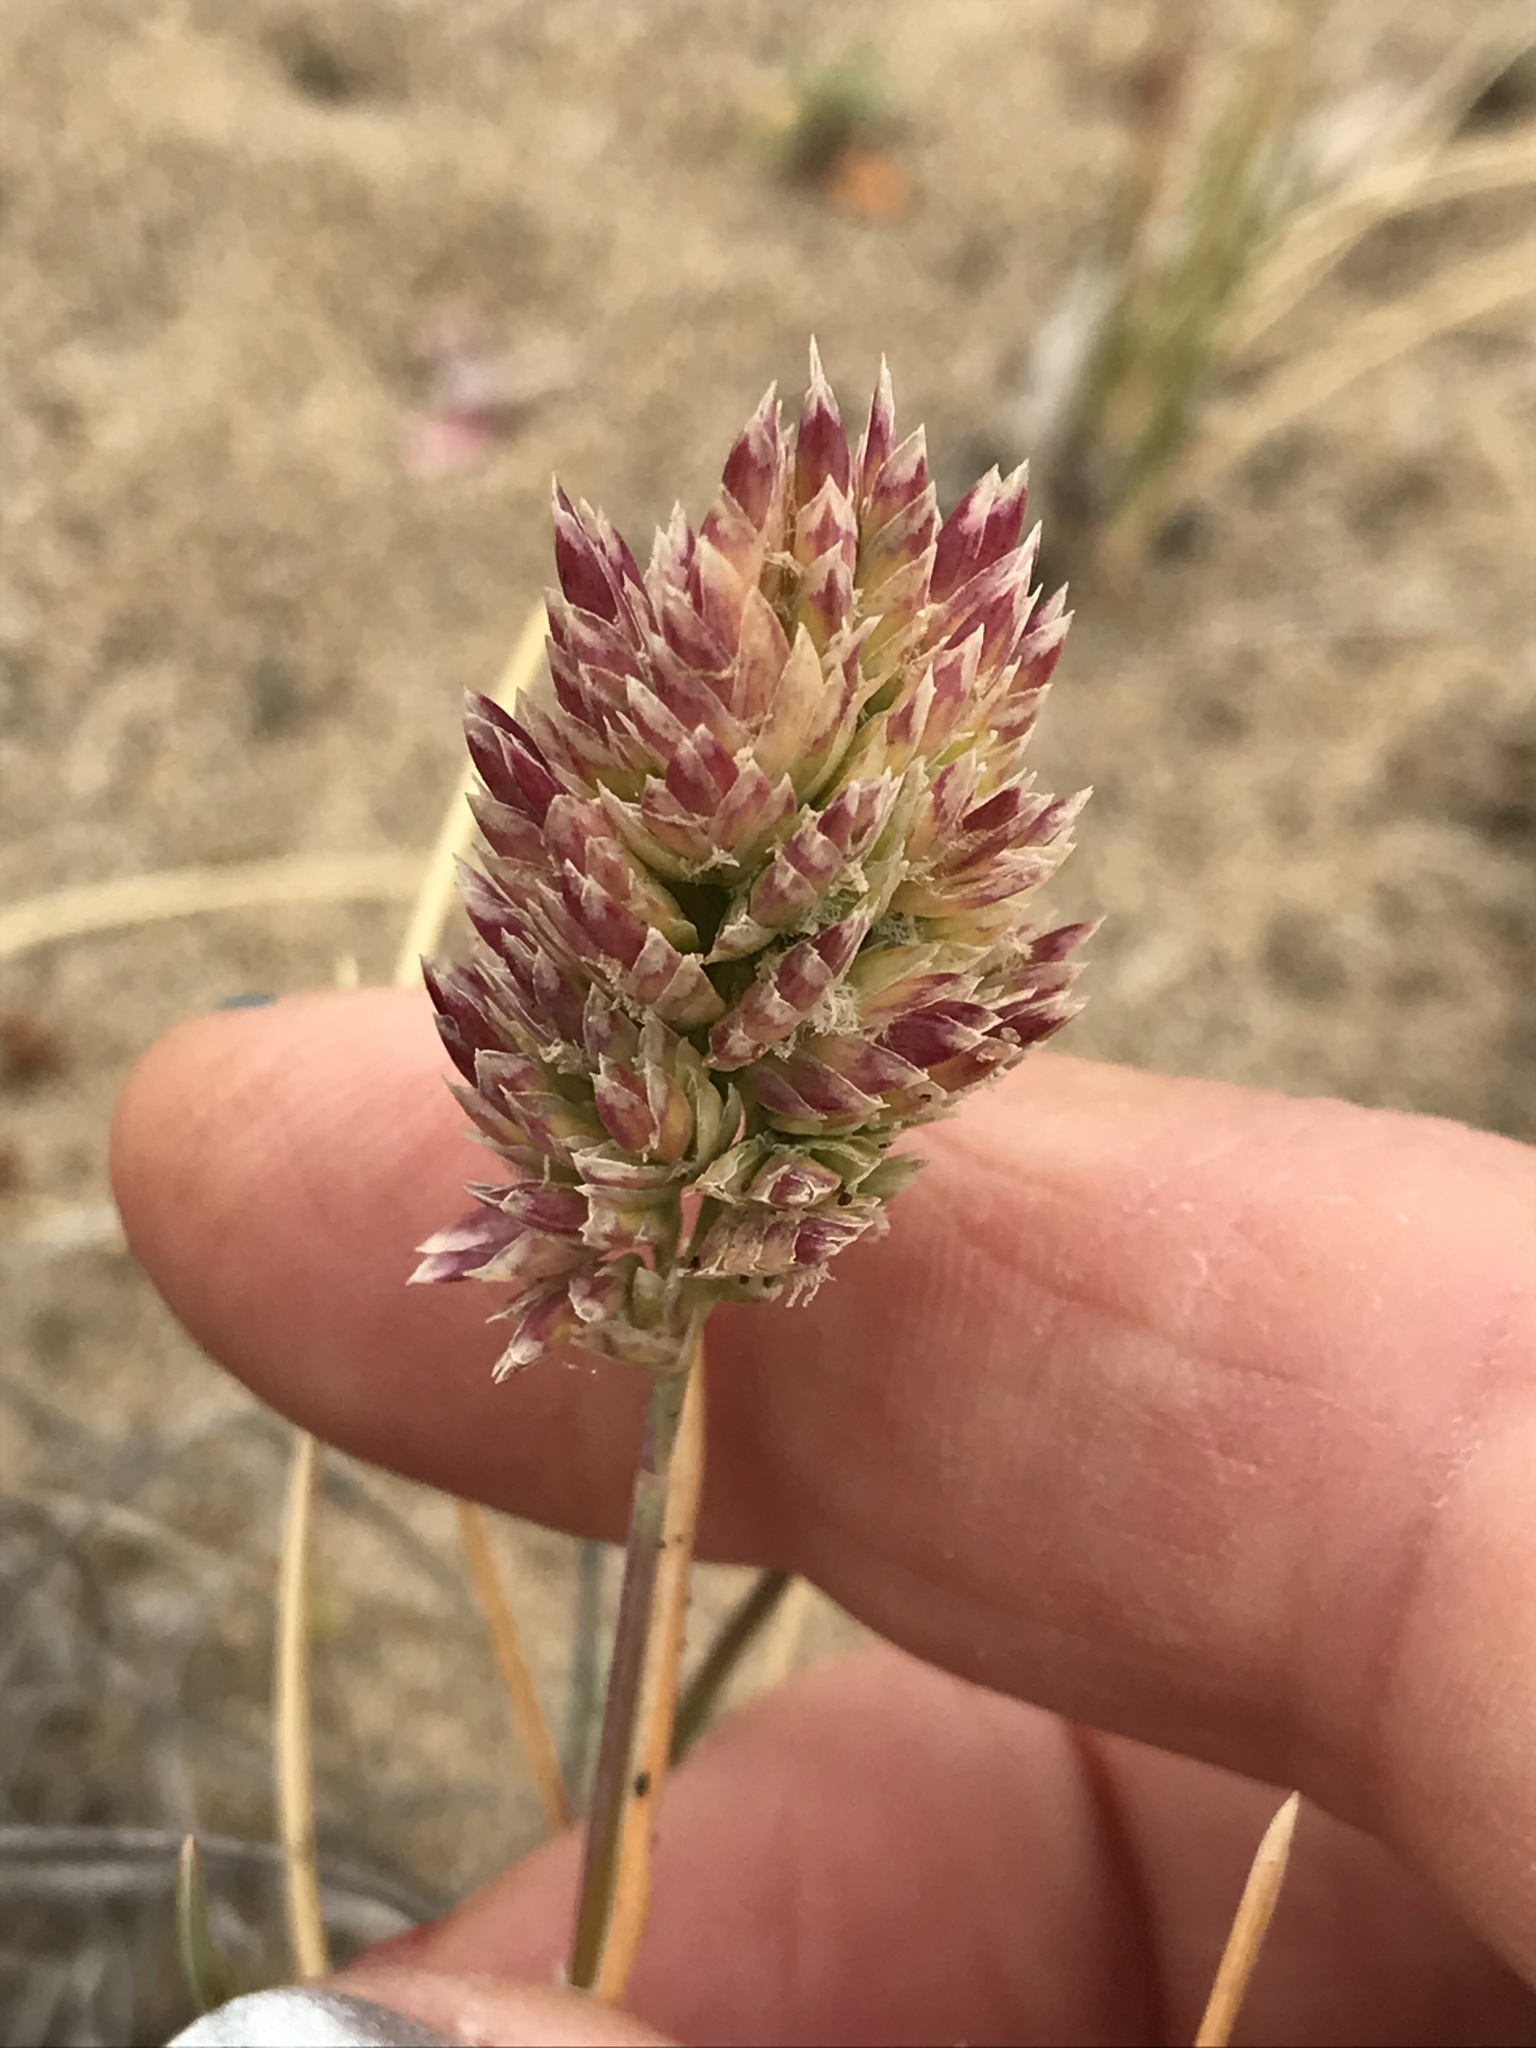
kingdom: Plantae
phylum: Tracheophyta
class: Liliopsida
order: Poales
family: Poaceae
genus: Poa
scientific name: Poa douglasii
